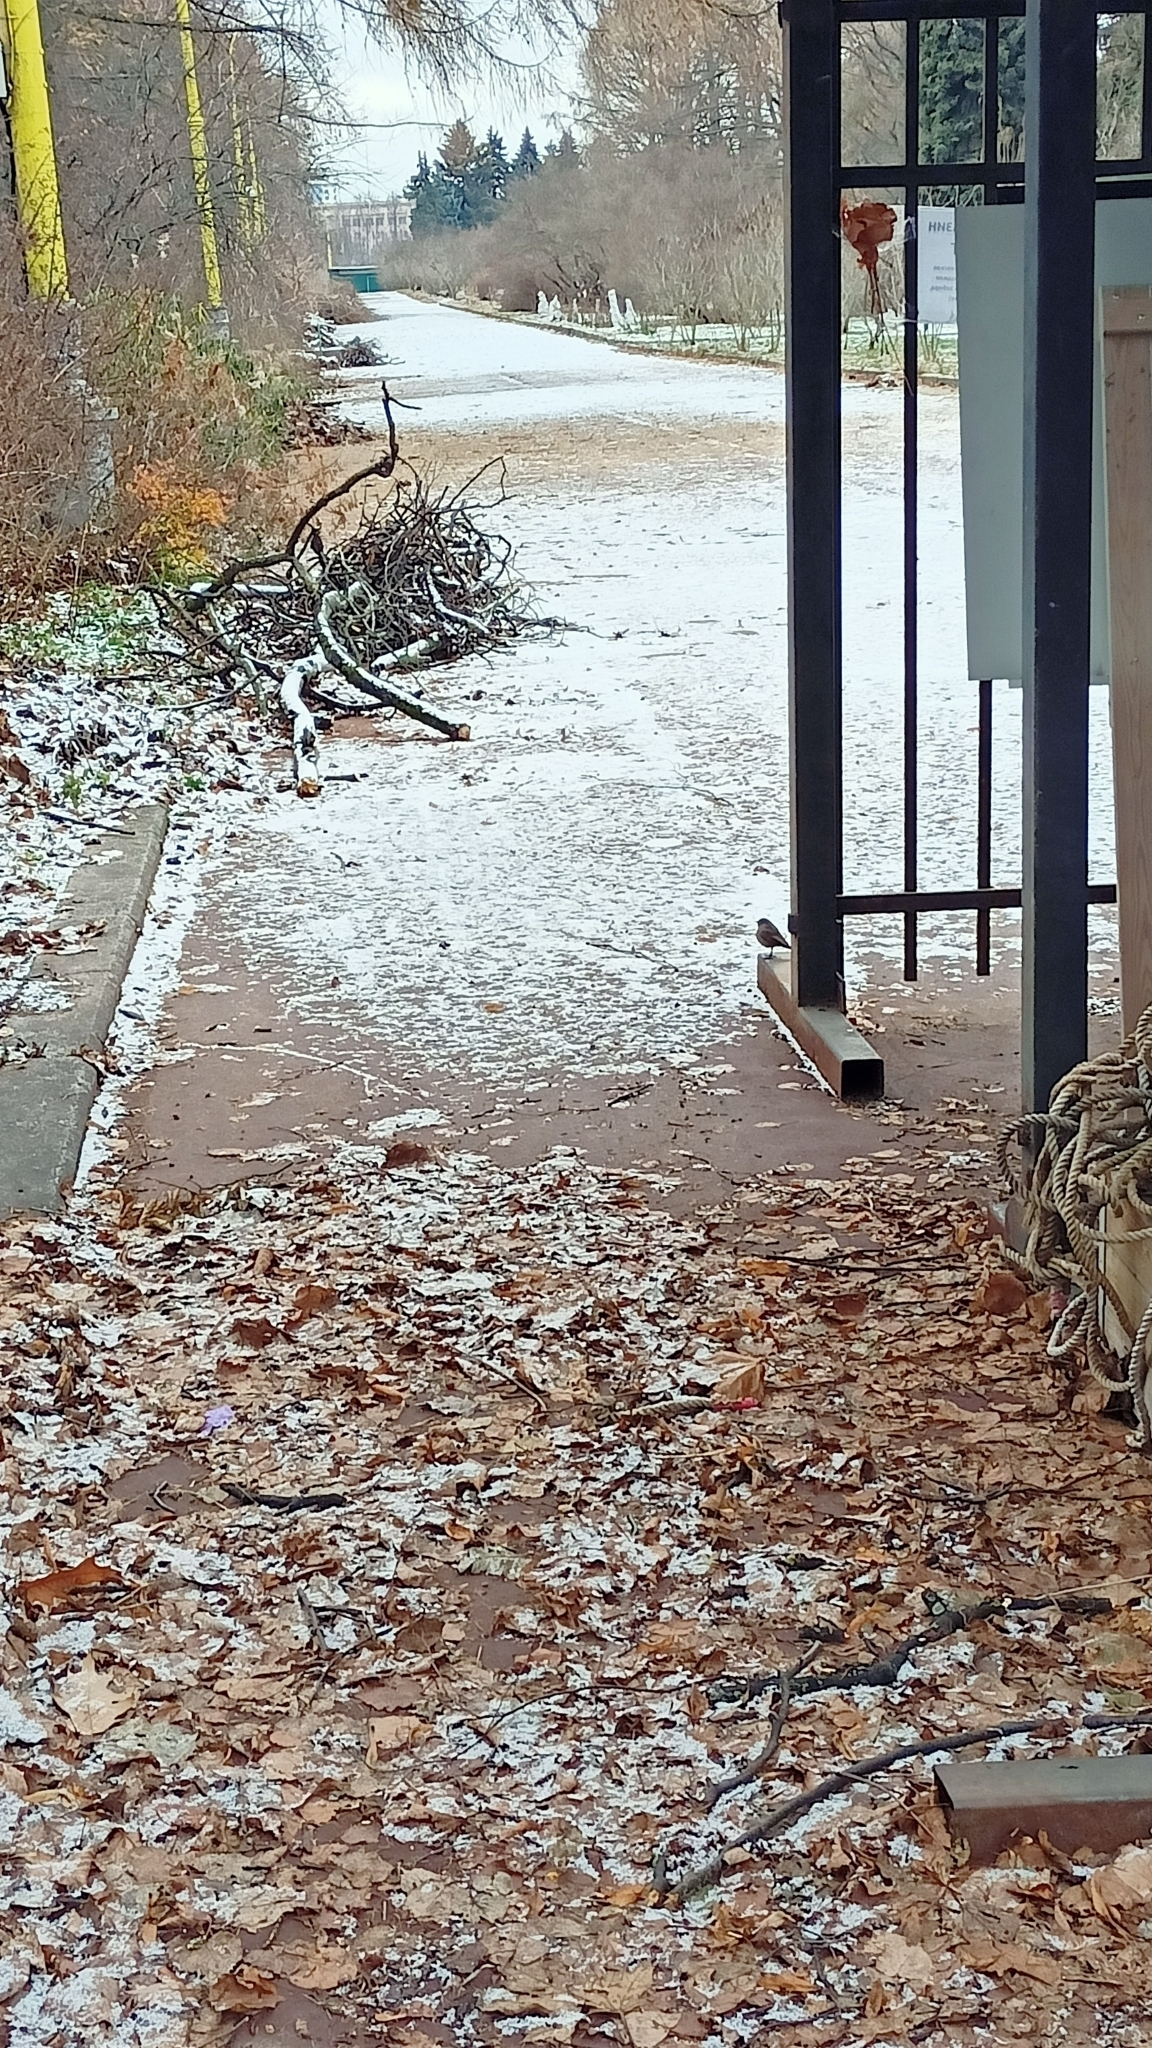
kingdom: Animalia
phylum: Chordata
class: Aves
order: Passeriformes
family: Muscicapidae
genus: Phoenicurus
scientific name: Phoenicurus ochruros
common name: Black redstart
